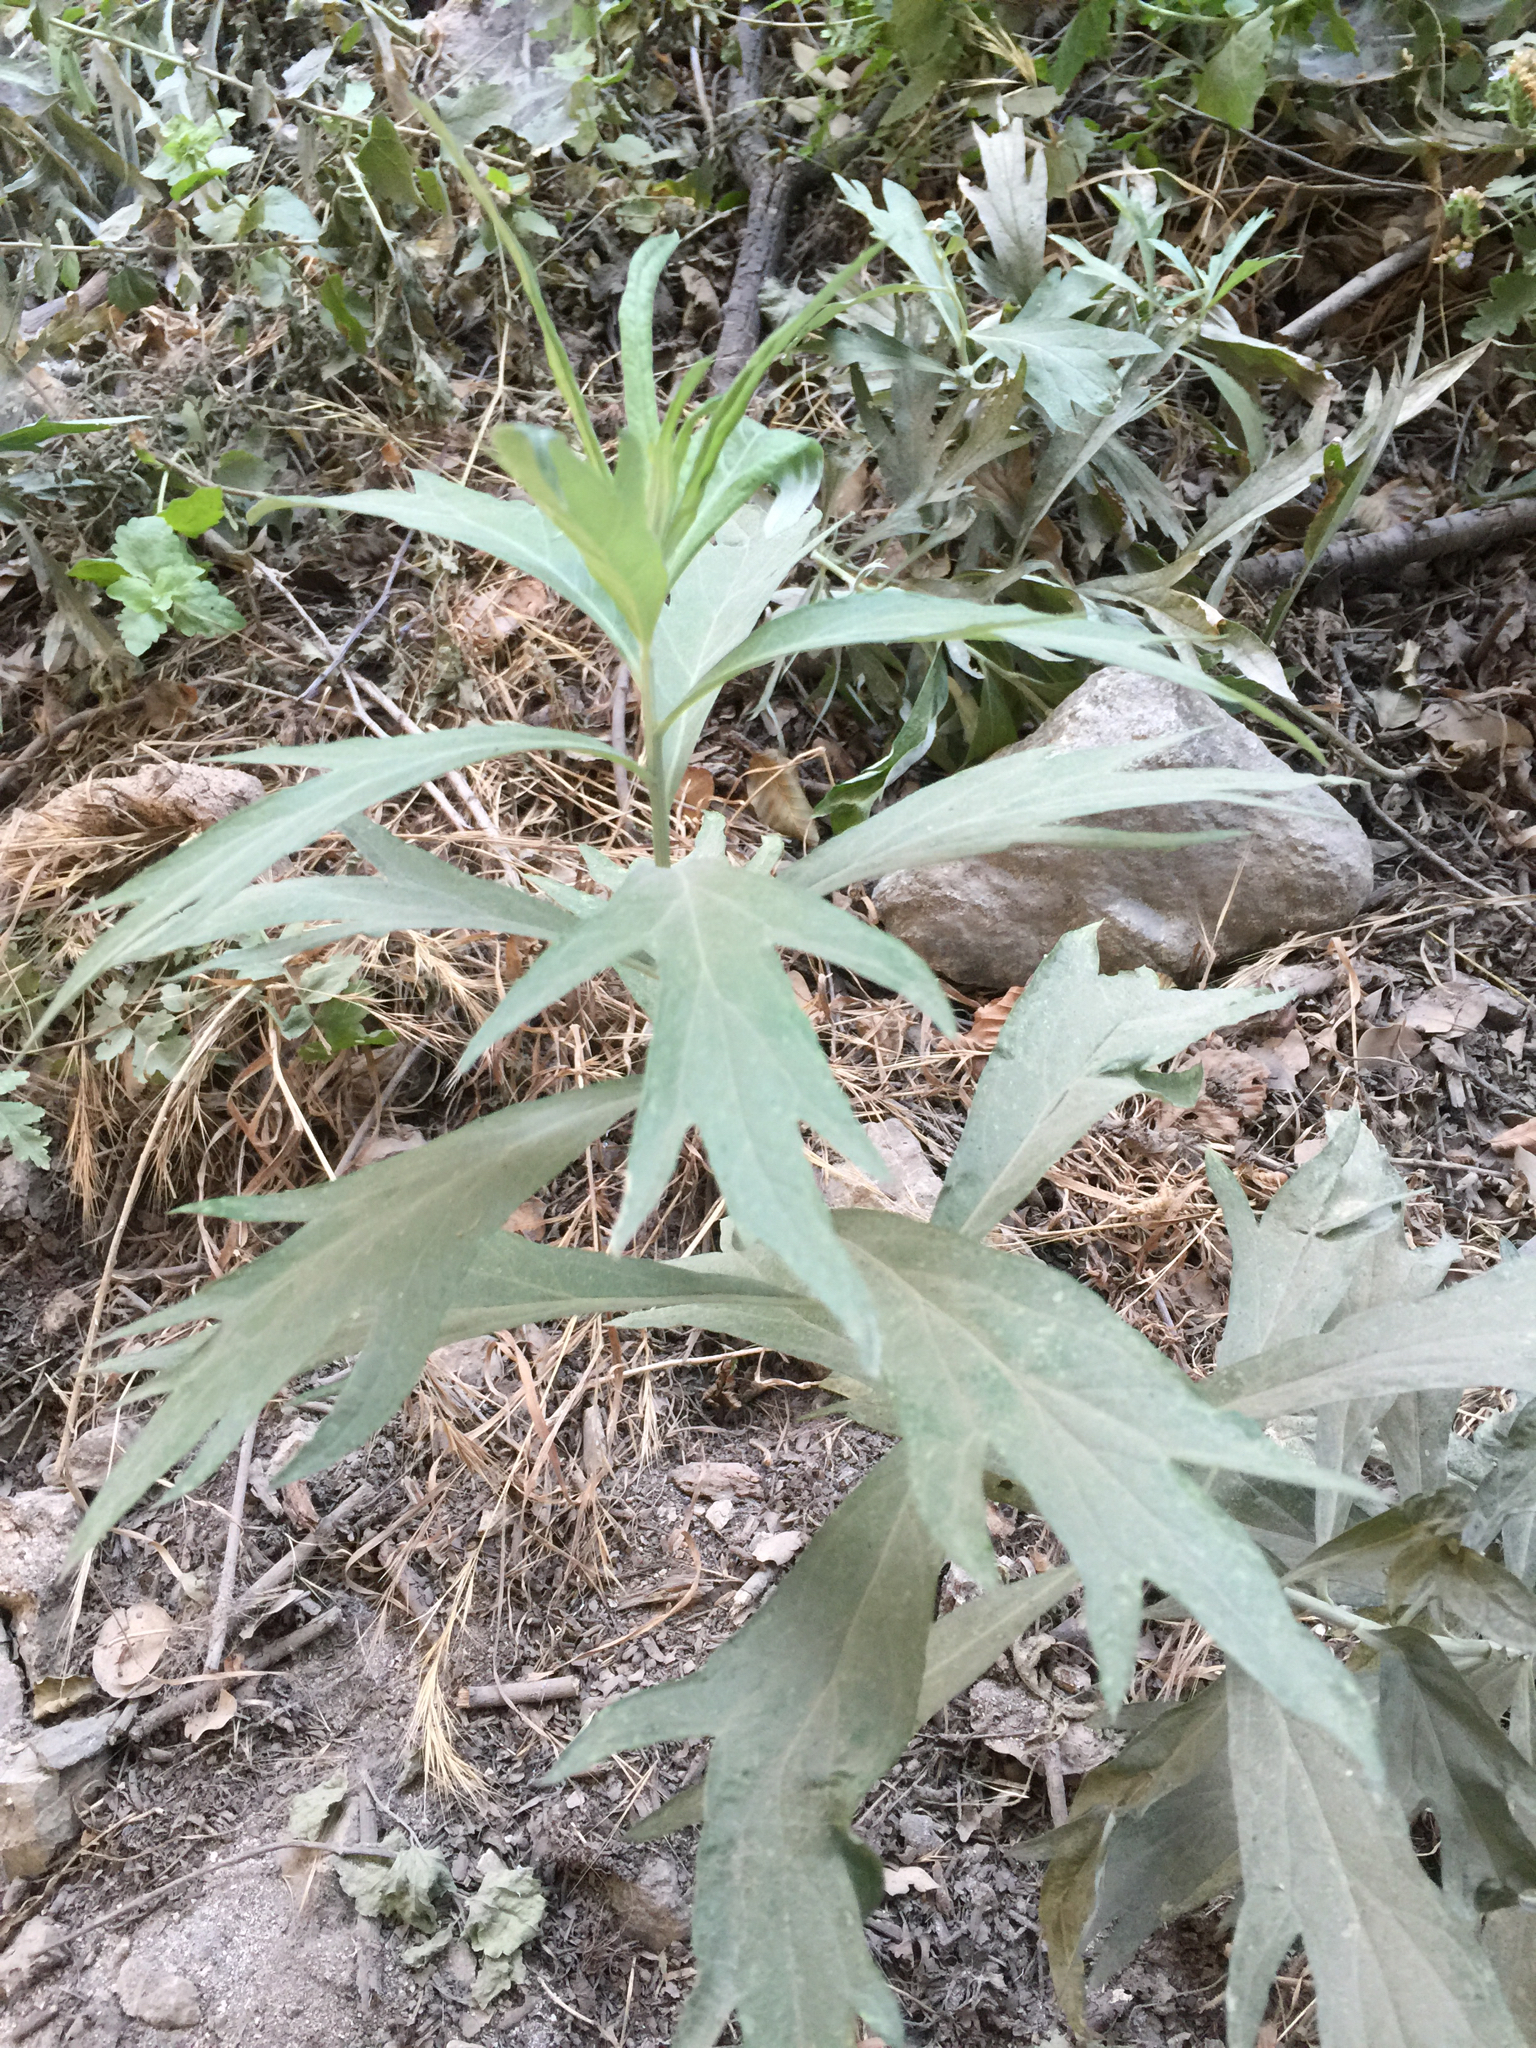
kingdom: Plantae
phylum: Tracheophyta
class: Magnoliopsida
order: Asterales
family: Asteraceae
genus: Artemisia
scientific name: Artemisia douglasiana
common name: Northwest mugwort
